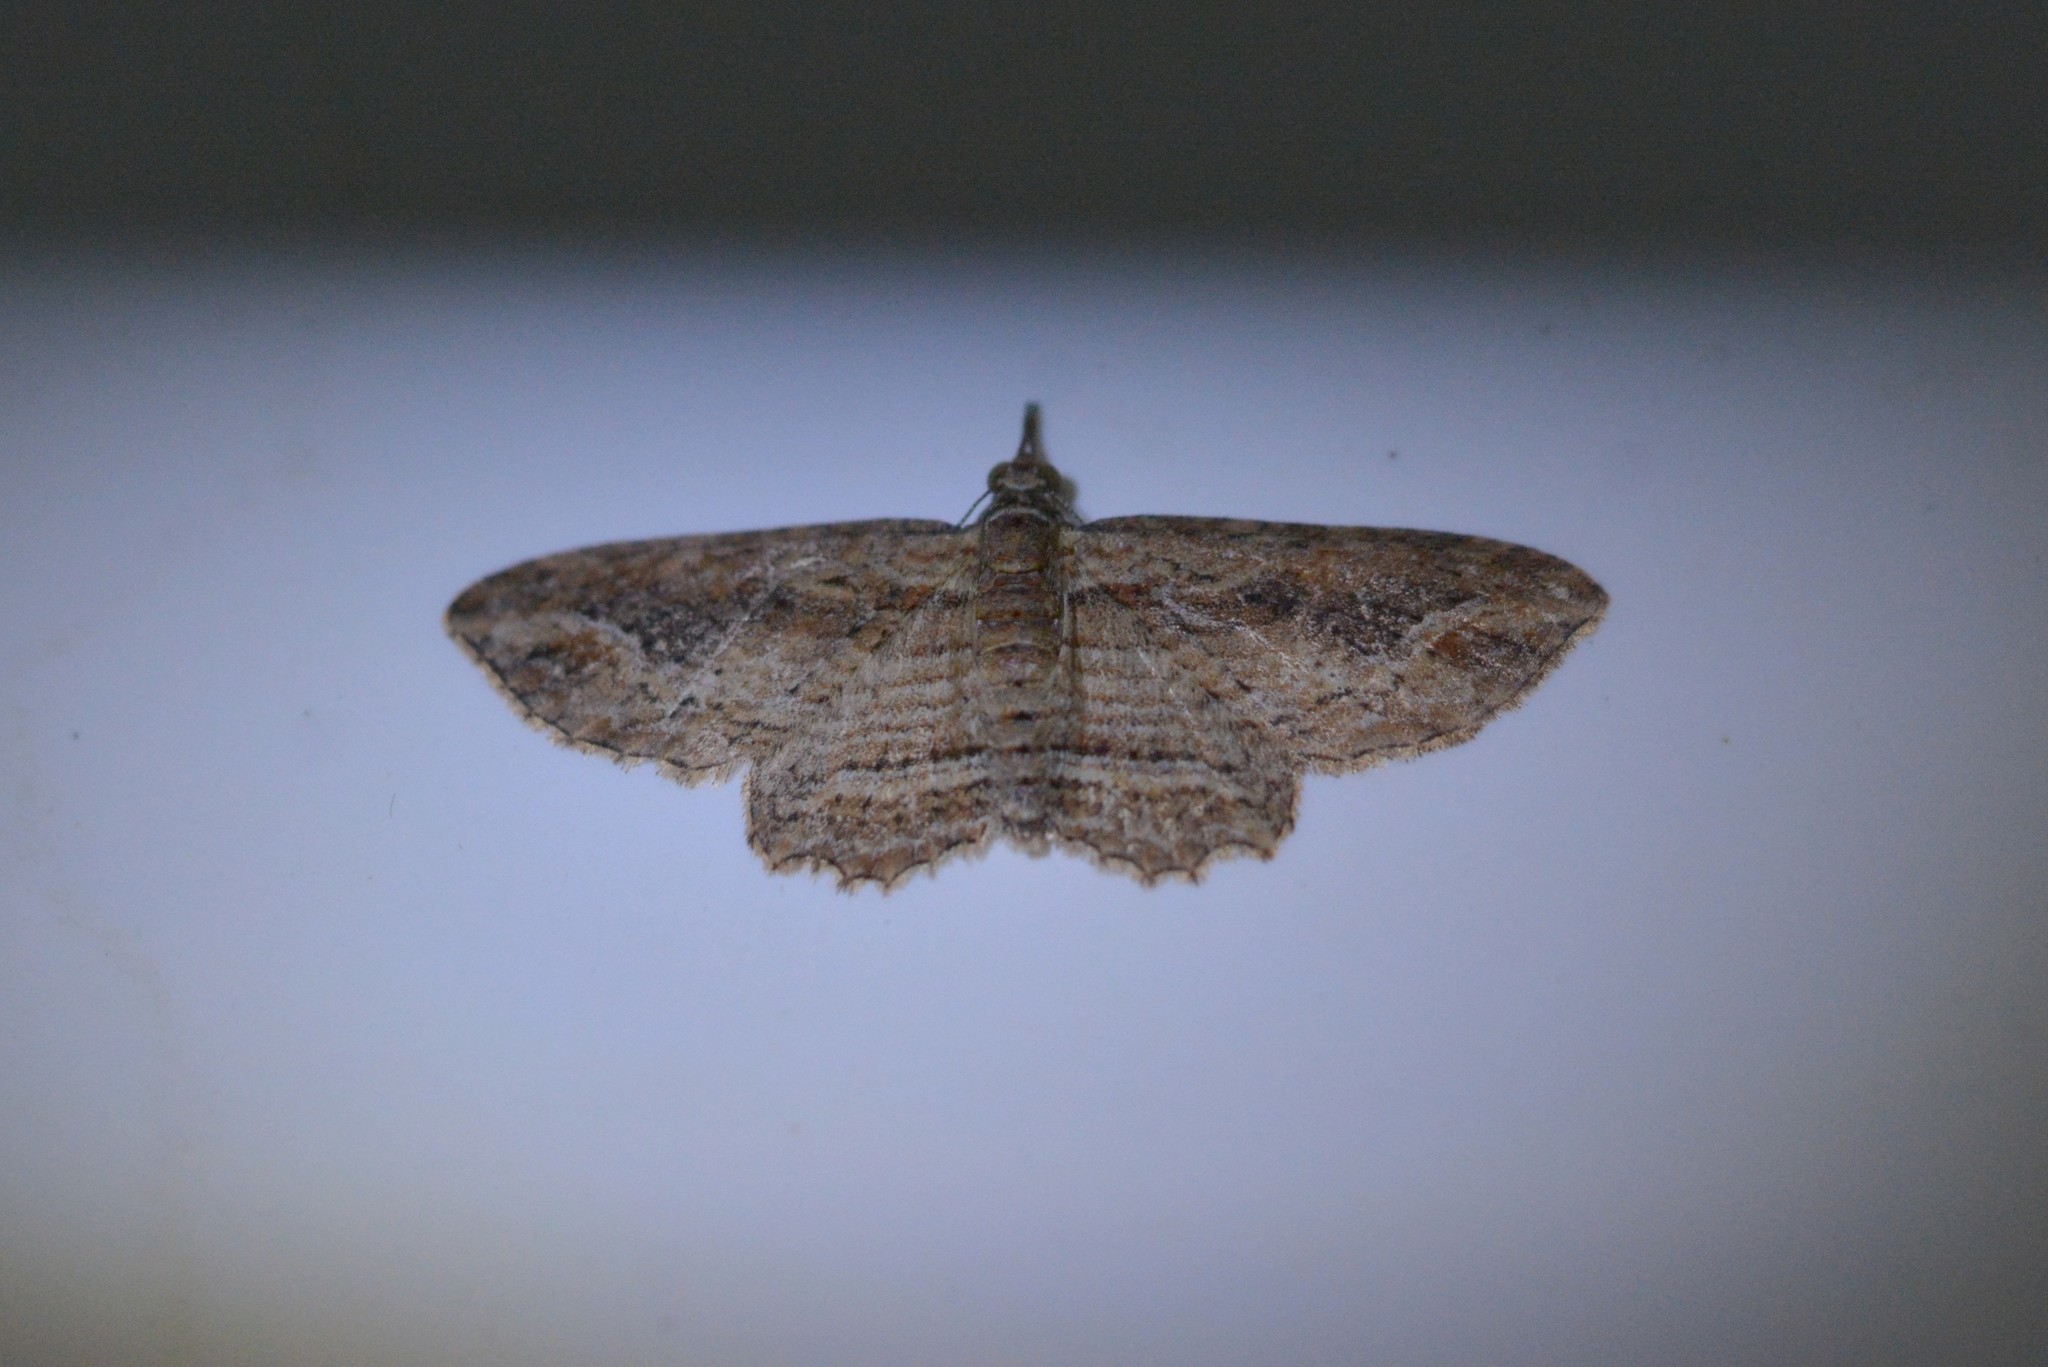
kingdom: Animalia
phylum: Arthropoda
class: Insecta
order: Lepidoptera
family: Geometridae
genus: Chloroclystis
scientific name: Chloroclystis filata
